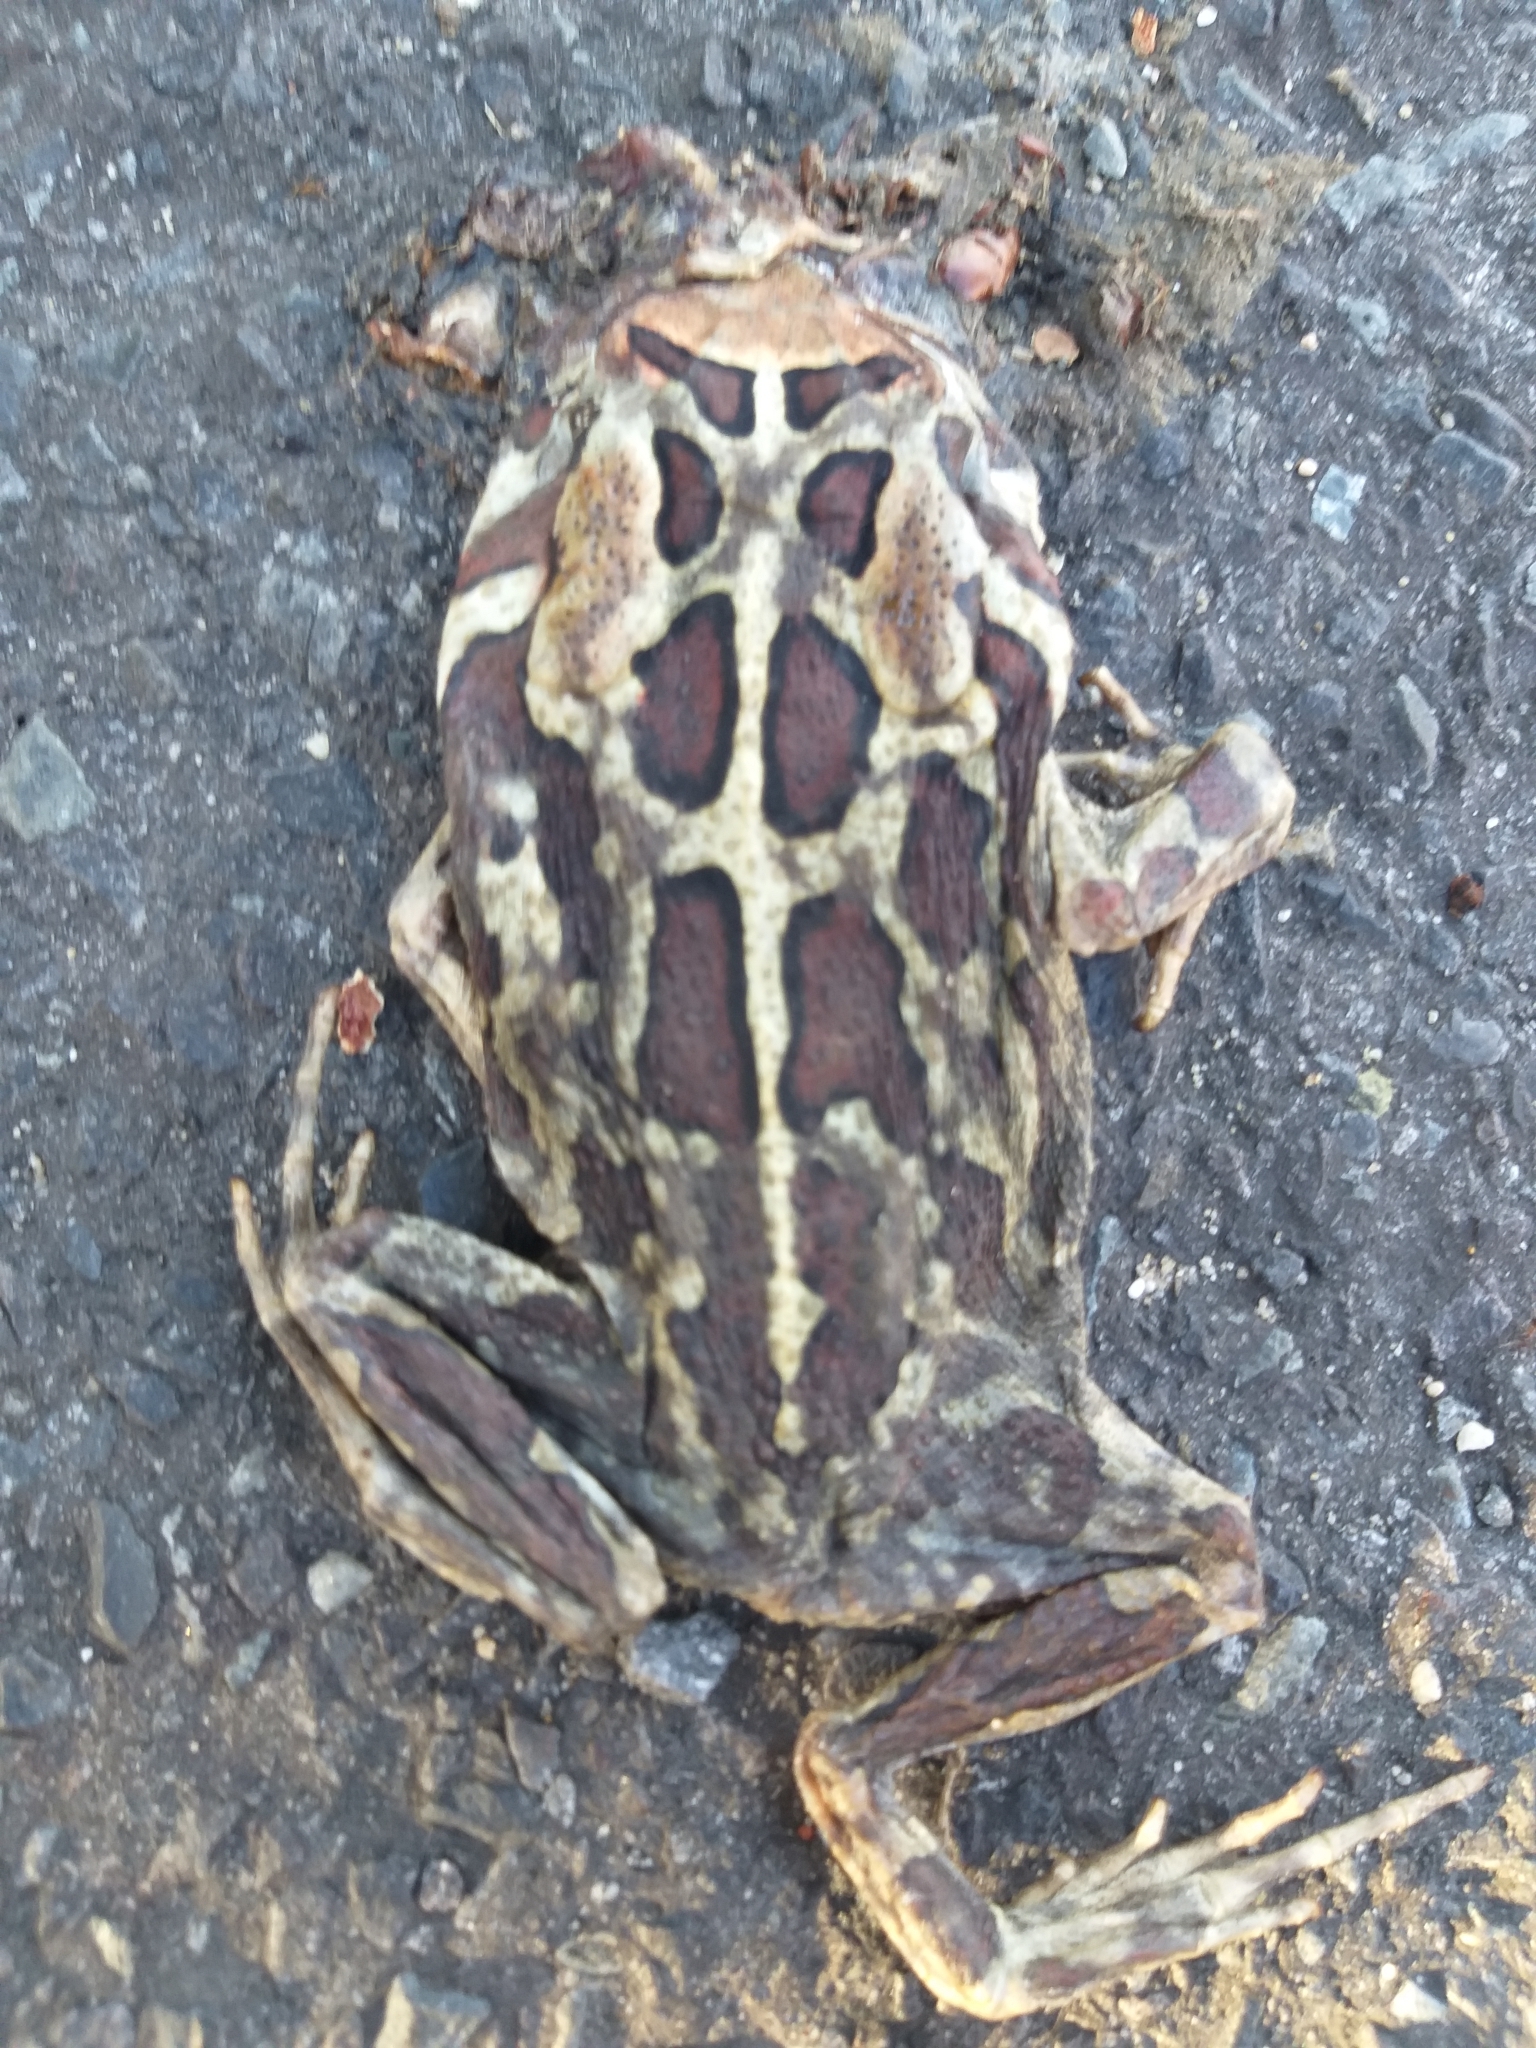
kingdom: Animalia
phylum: Chordata
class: Amphibia
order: Anura
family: Bufonidae
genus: Sclerophrys
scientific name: Sclerophrys pantherina
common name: Panther toad
